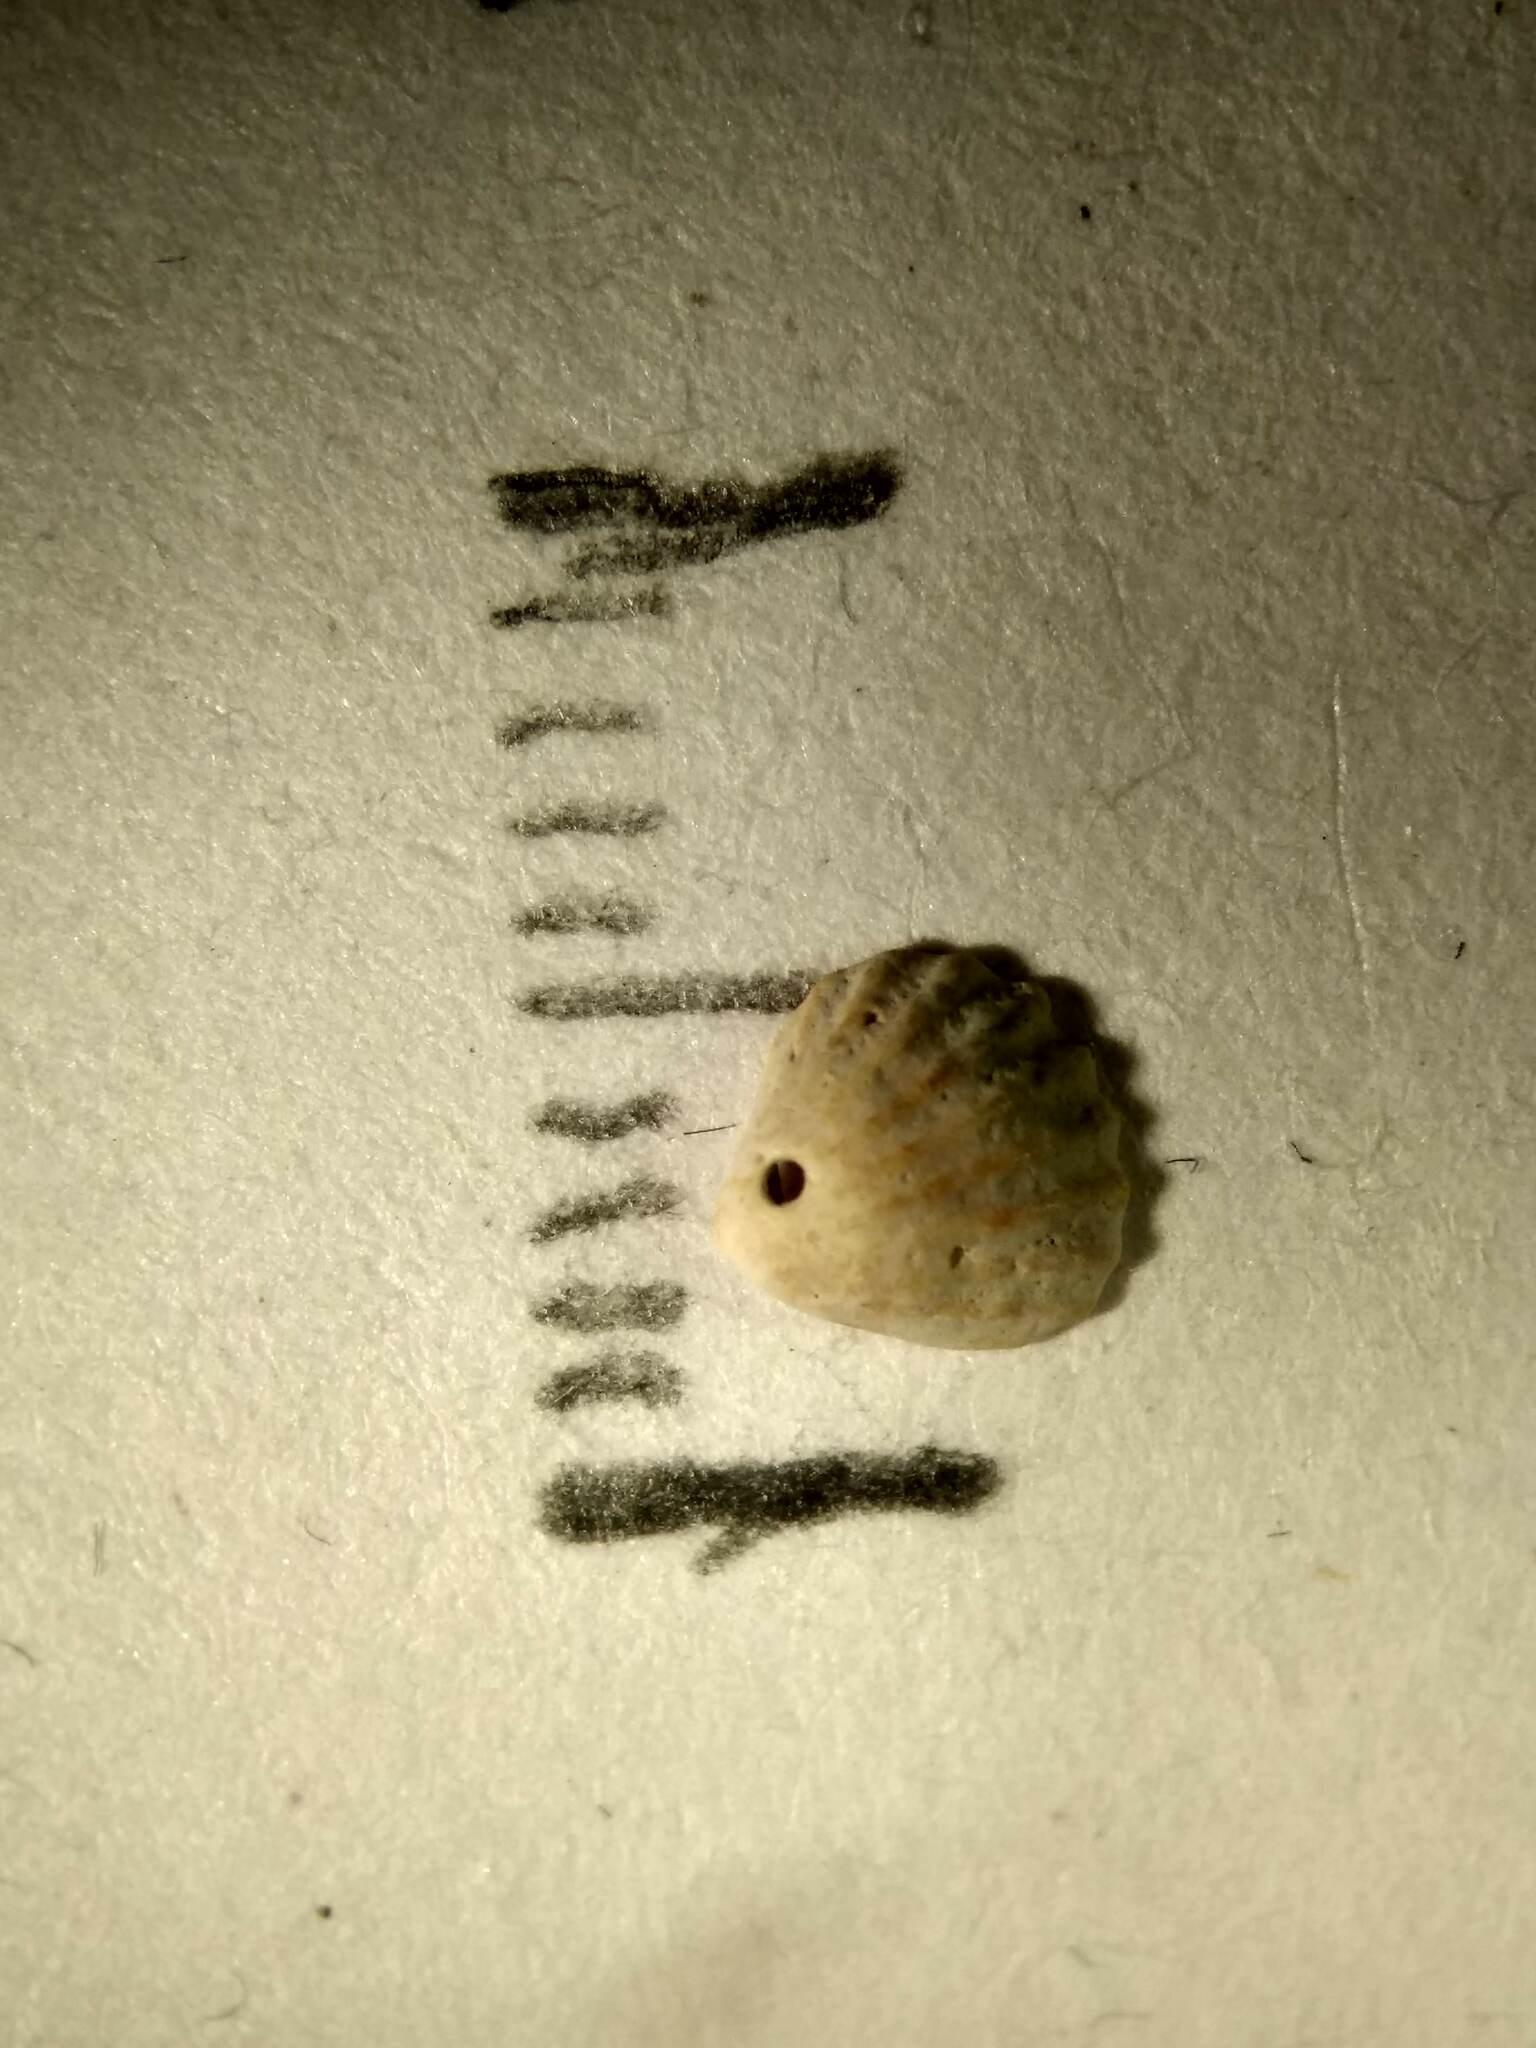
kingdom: Animalia
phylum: Mollusca
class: Bivalvia
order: Carditida
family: Carditidae
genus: Pleuromeris
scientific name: Pleuromeris tridentata
